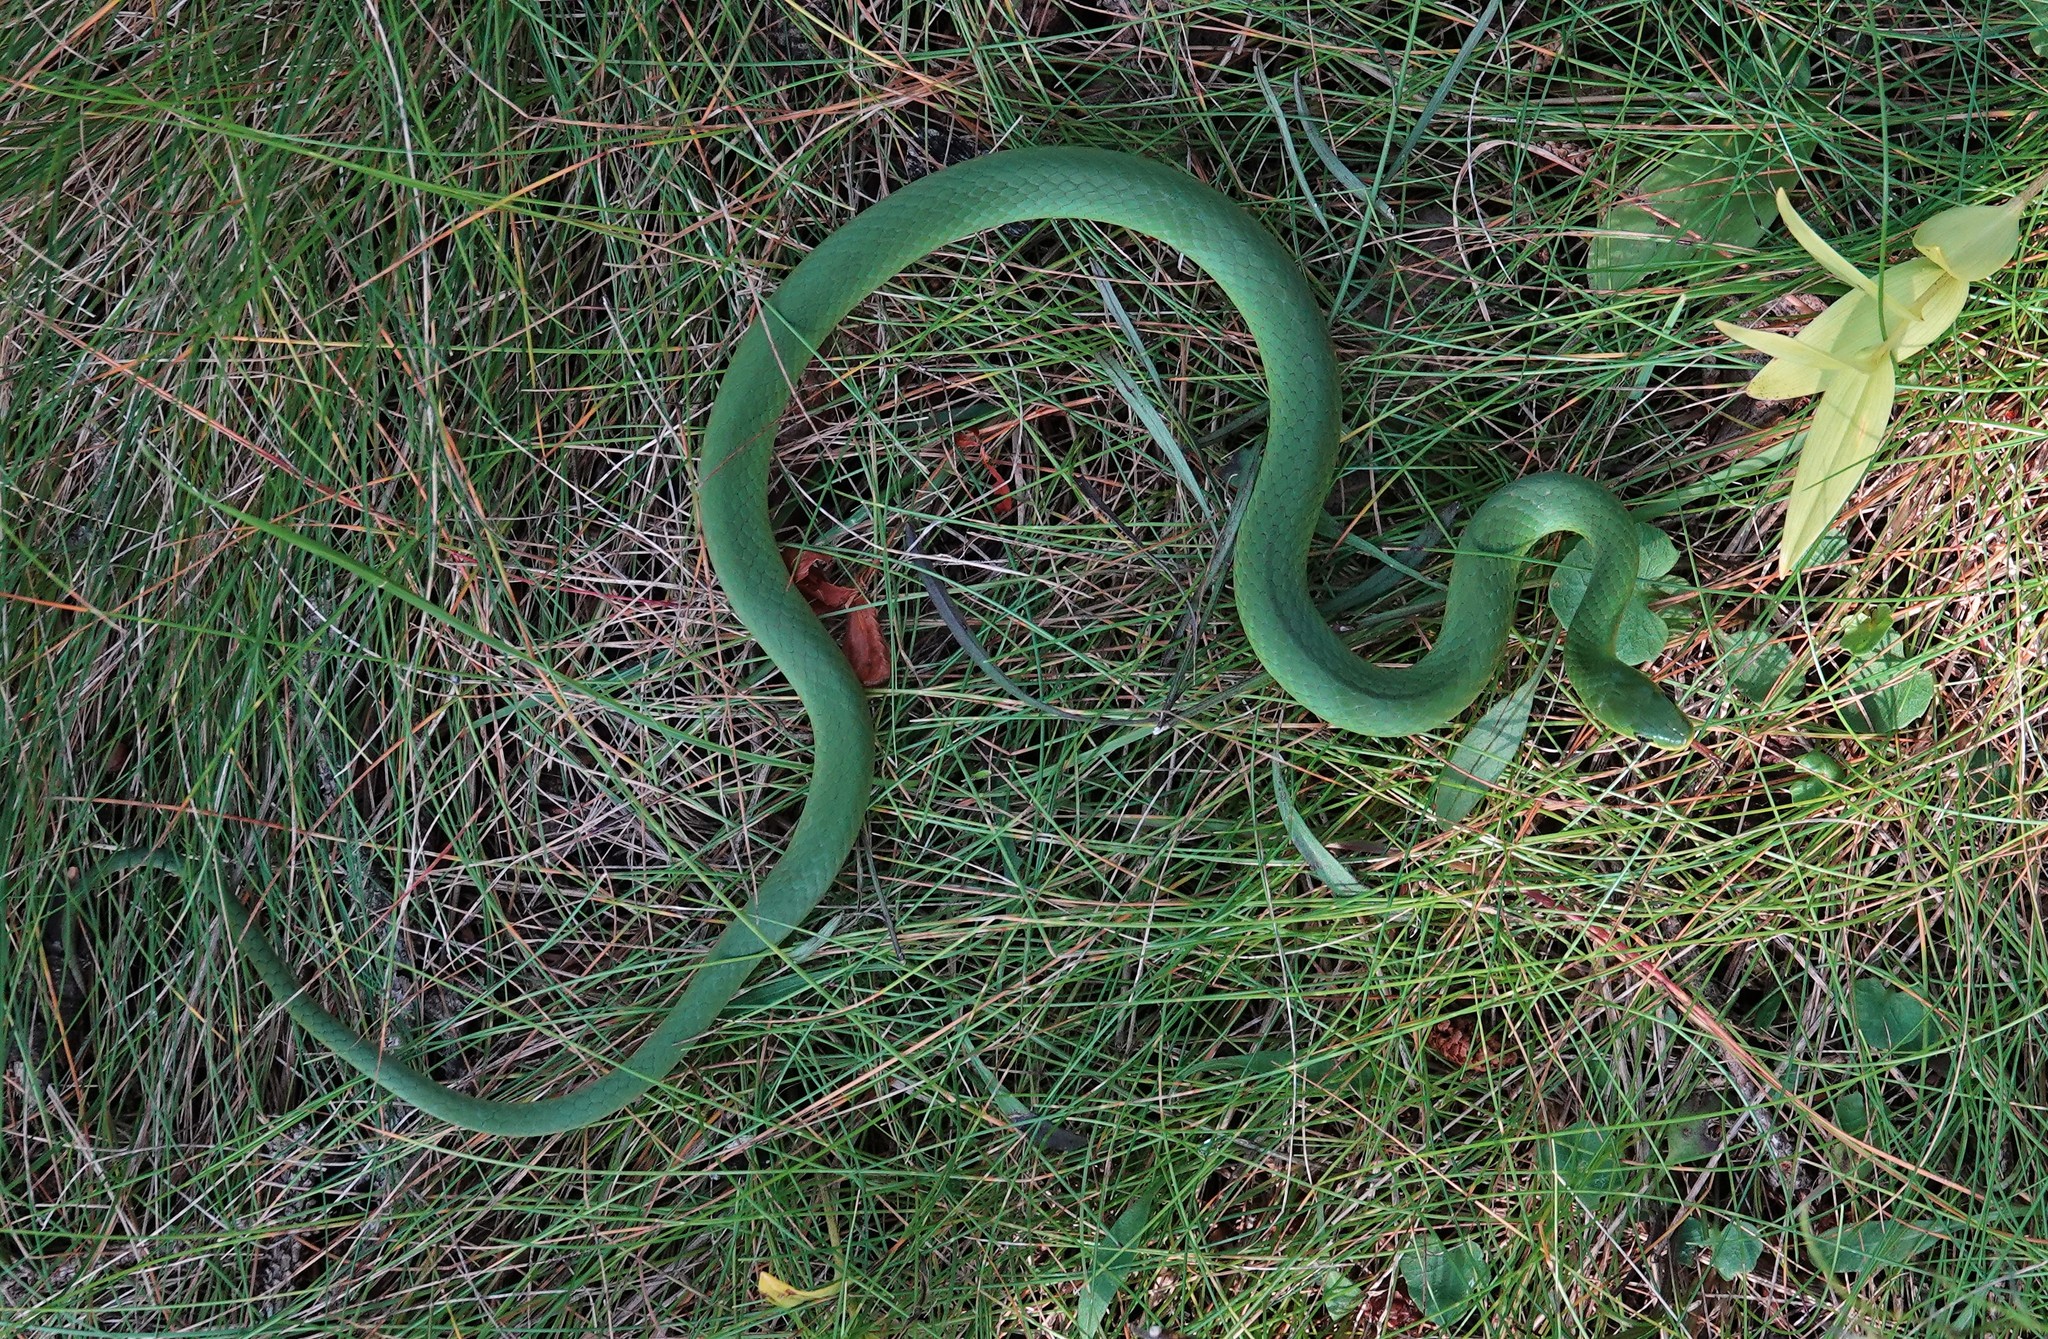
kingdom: Animalia
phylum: Chordata
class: Squamata
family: Colubridae
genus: Opheodrys
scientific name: Opheodrys vernalis
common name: Smooth green snake
